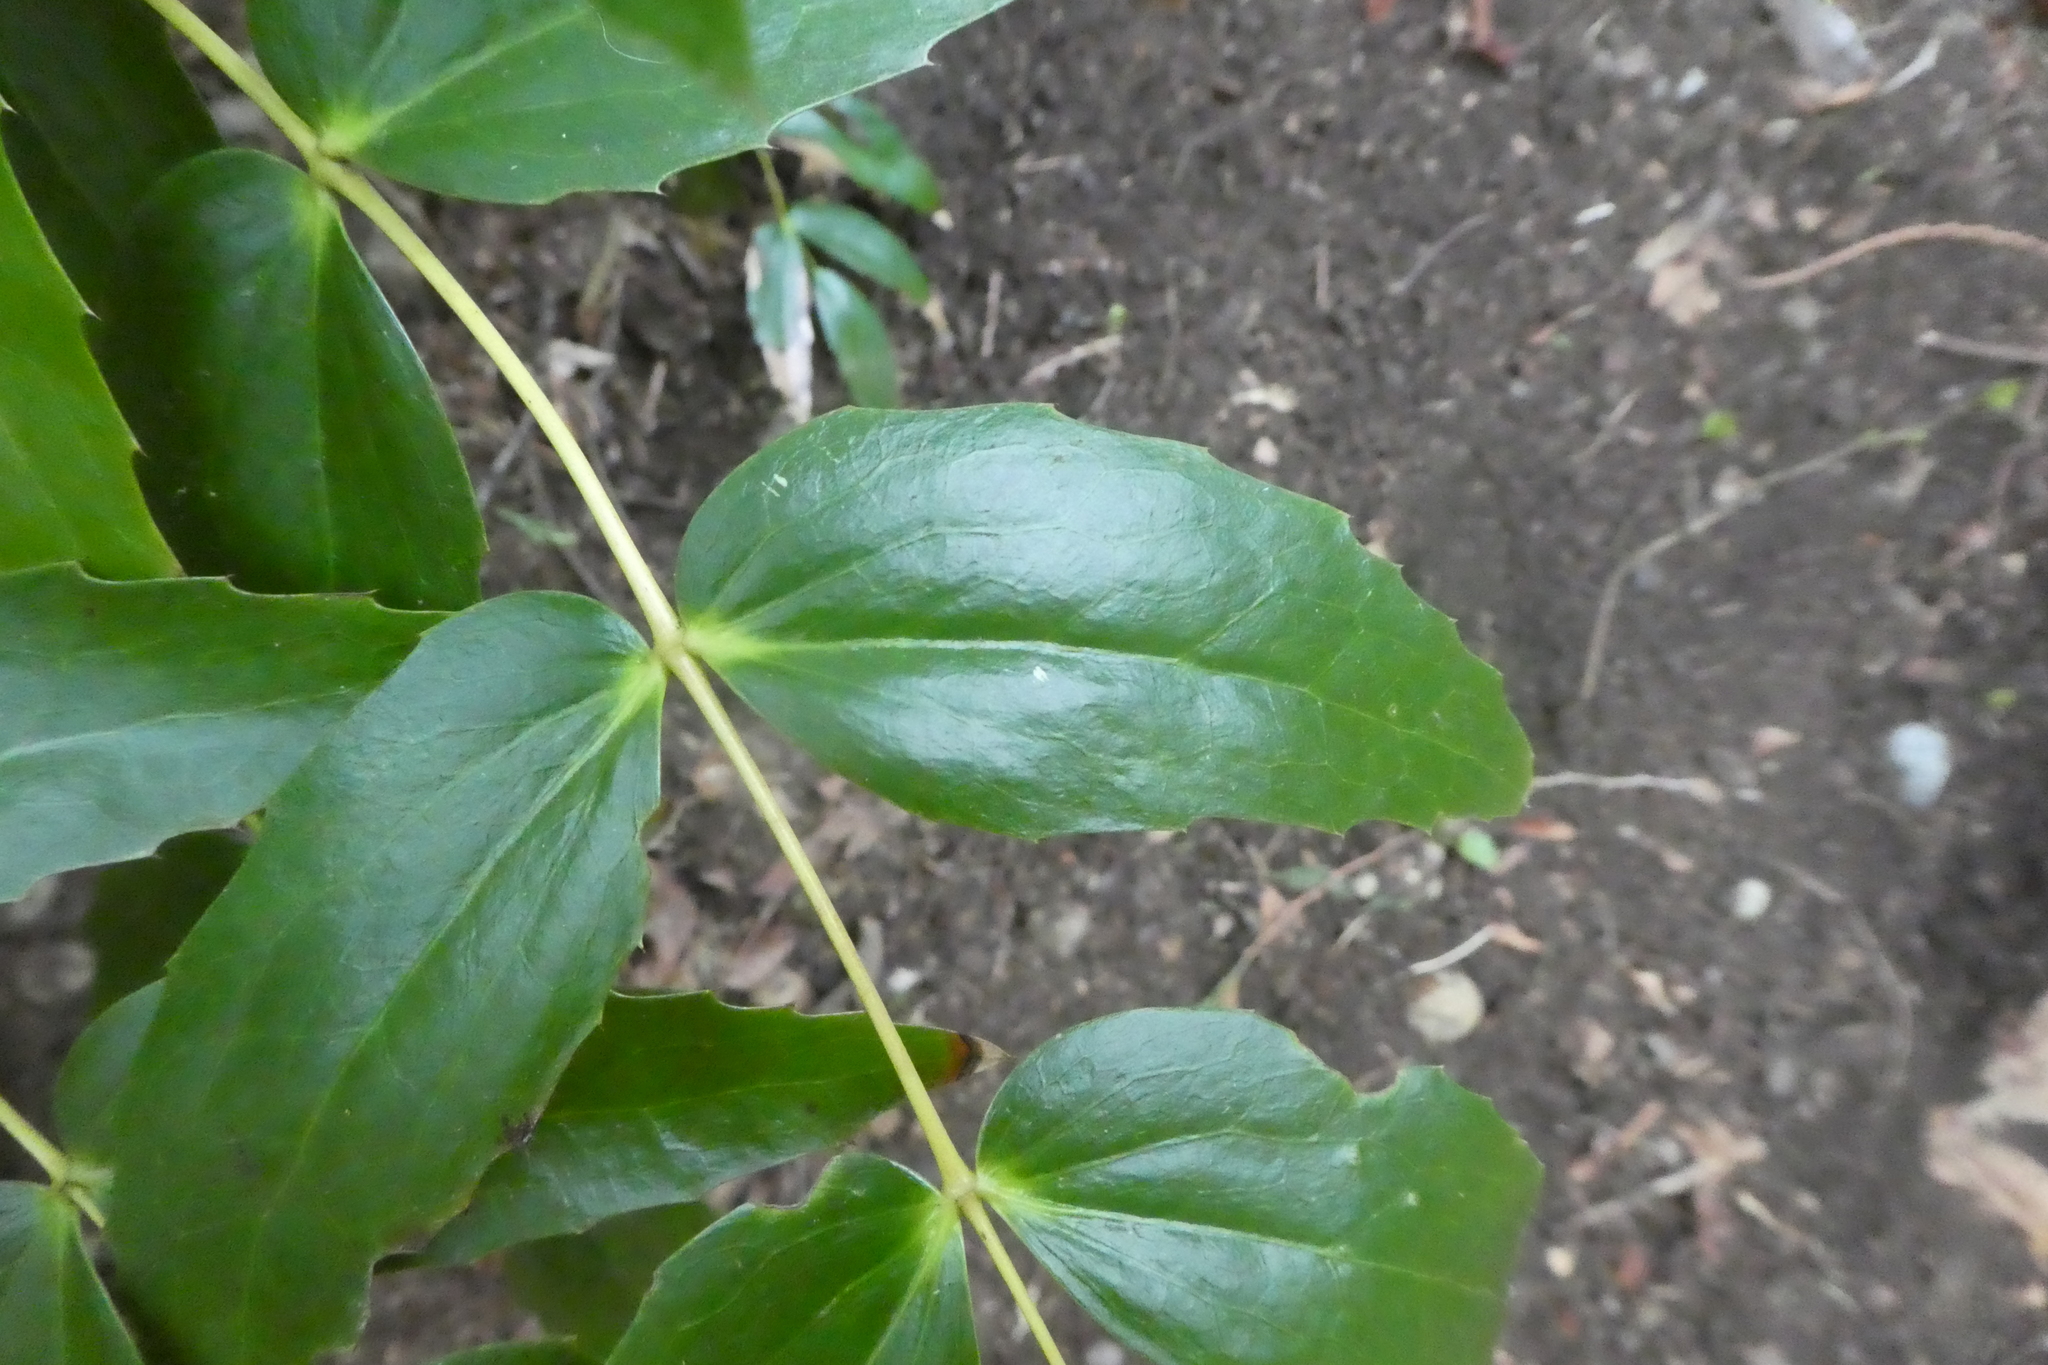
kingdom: Plantae
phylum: Tracheophyta
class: Magnoliopsida
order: Ranunculales
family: Berberidaceae
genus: Mahonia
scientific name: Mahonia nervosa
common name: Cascade oregon-grape
